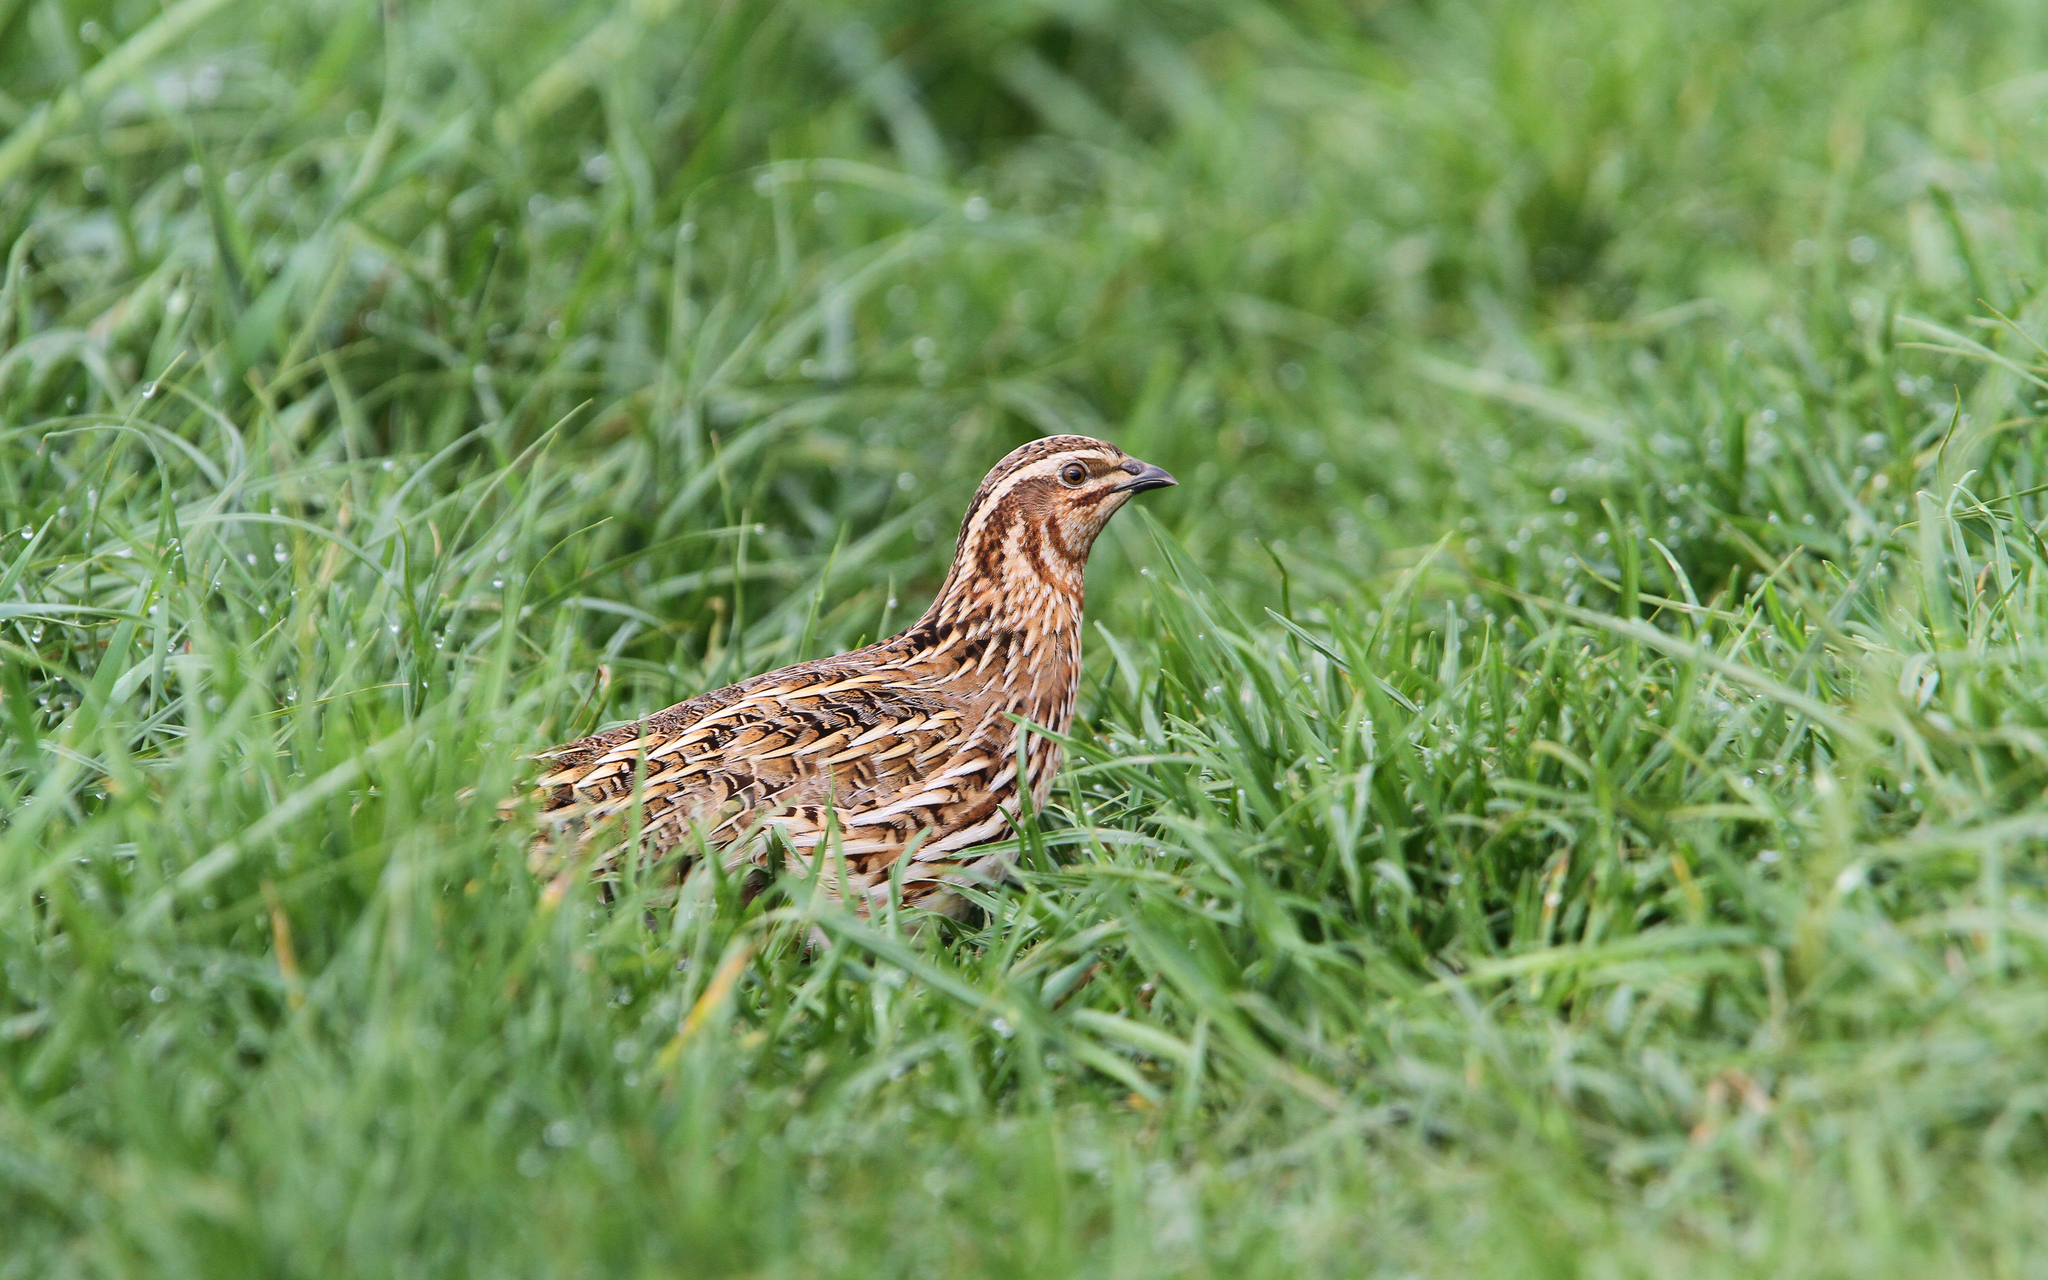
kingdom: Animalia
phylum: Chordata
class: Aves
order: Galliformes
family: Phasianidae
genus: Coturnix
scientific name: Coturnix coturnix
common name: Common quail
